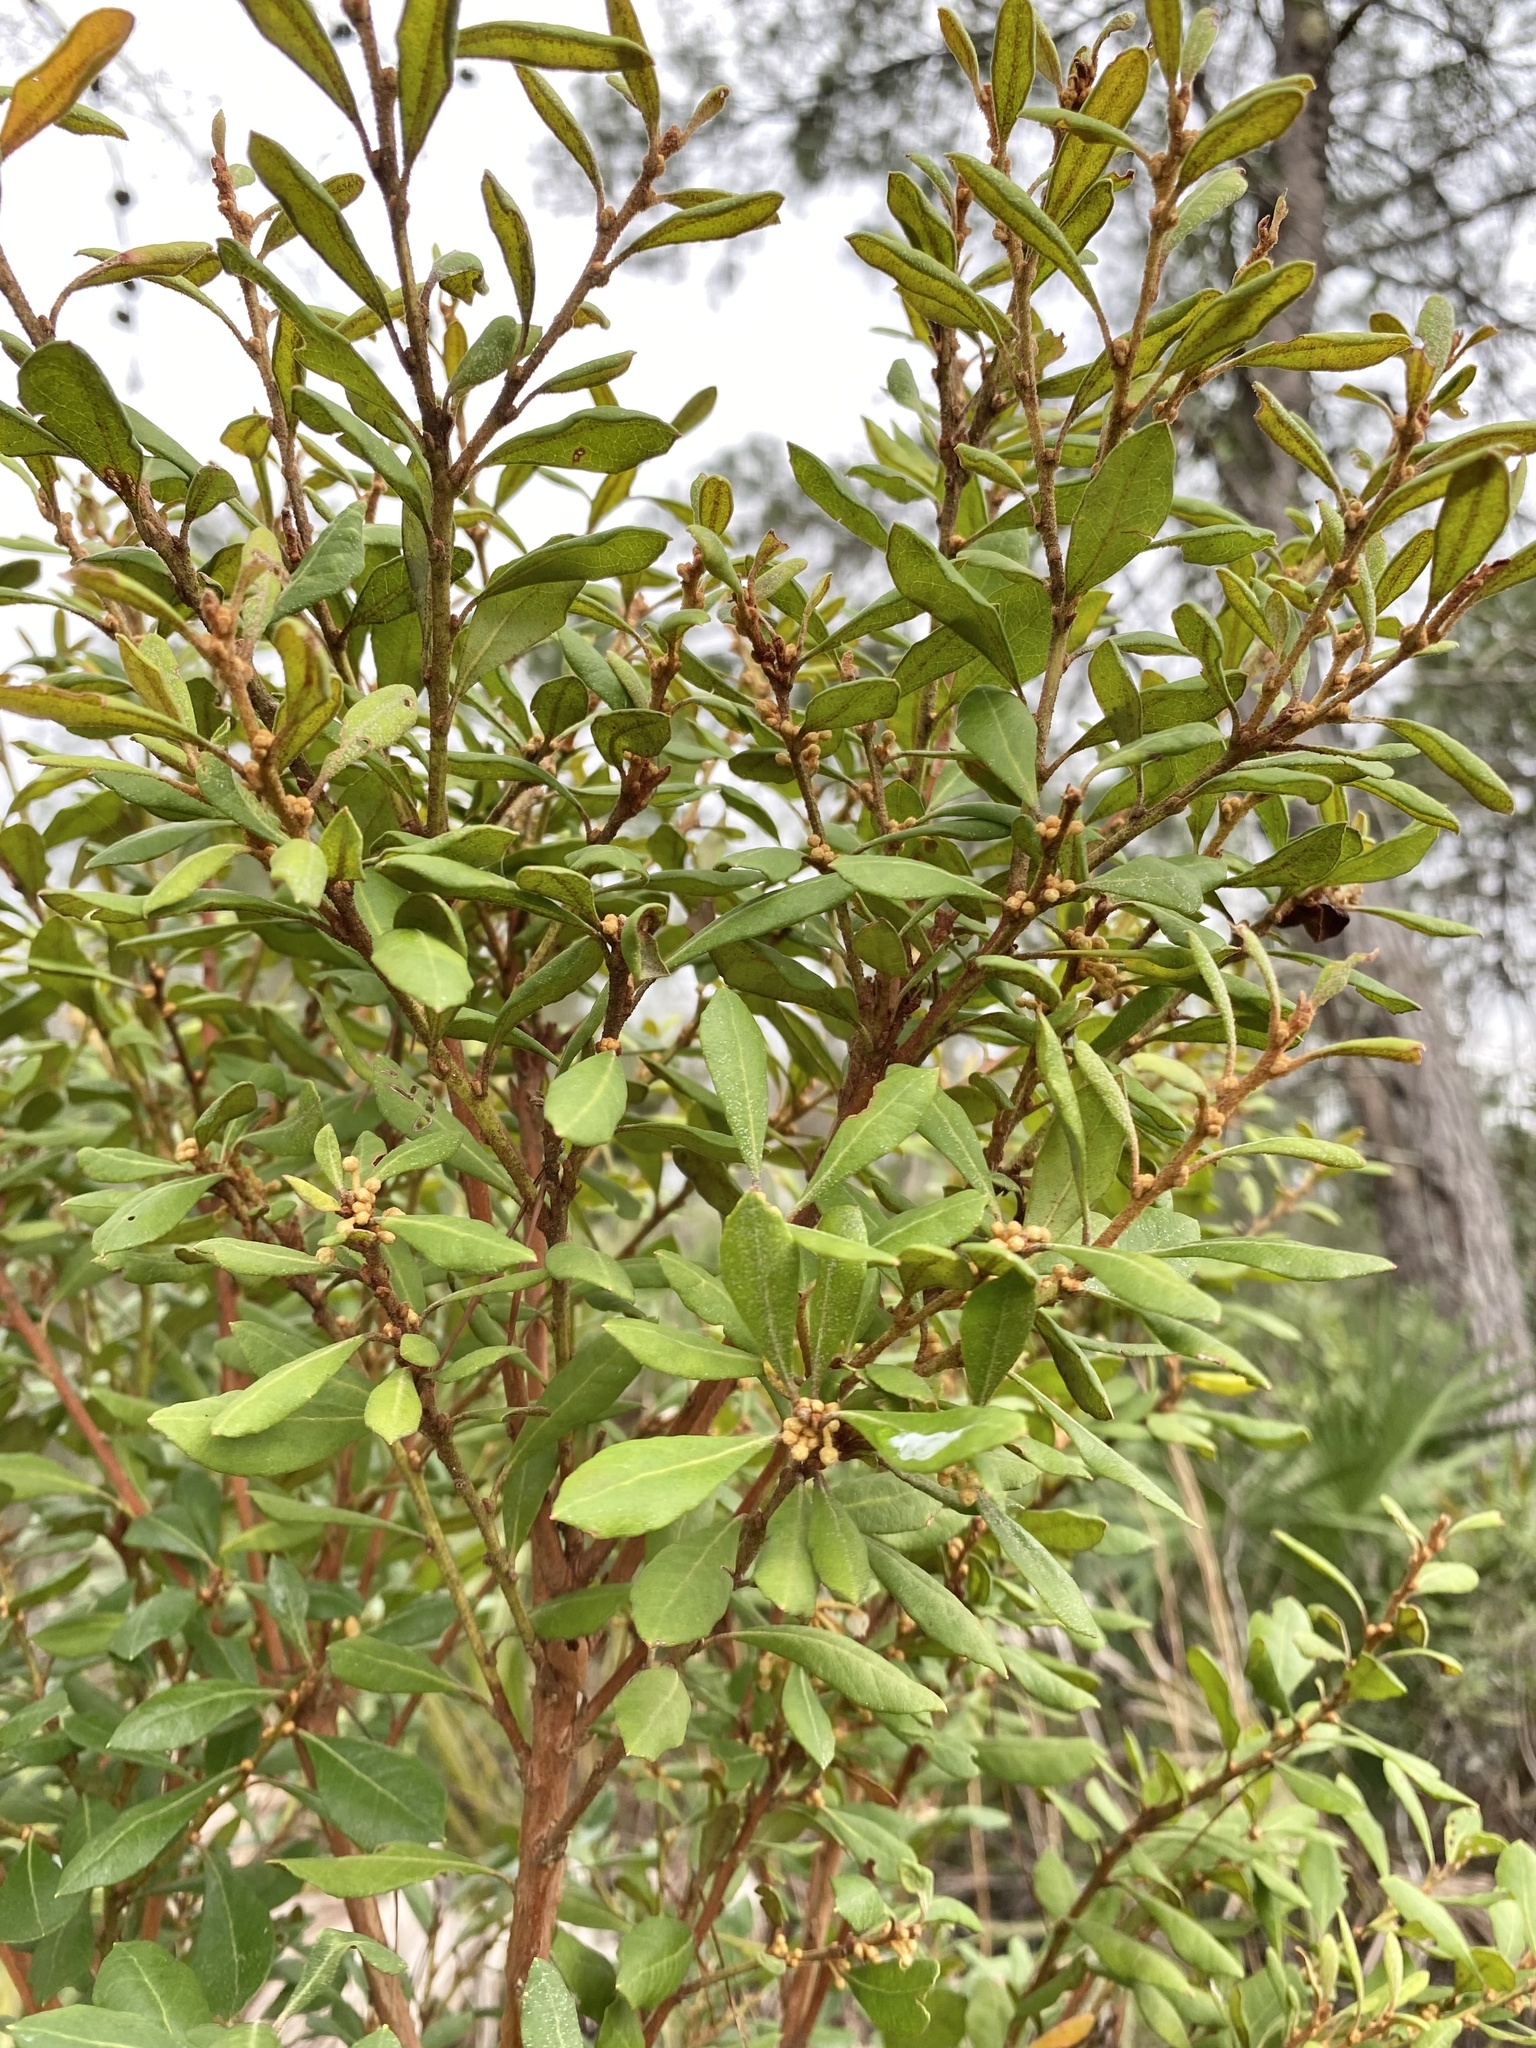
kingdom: Plantae
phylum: Tracheophyta
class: Magnoliopsida
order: Ericales
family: Ericaceae
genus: Lyonia
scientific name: Lyonia ferruginea
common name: Rusty lyonia
